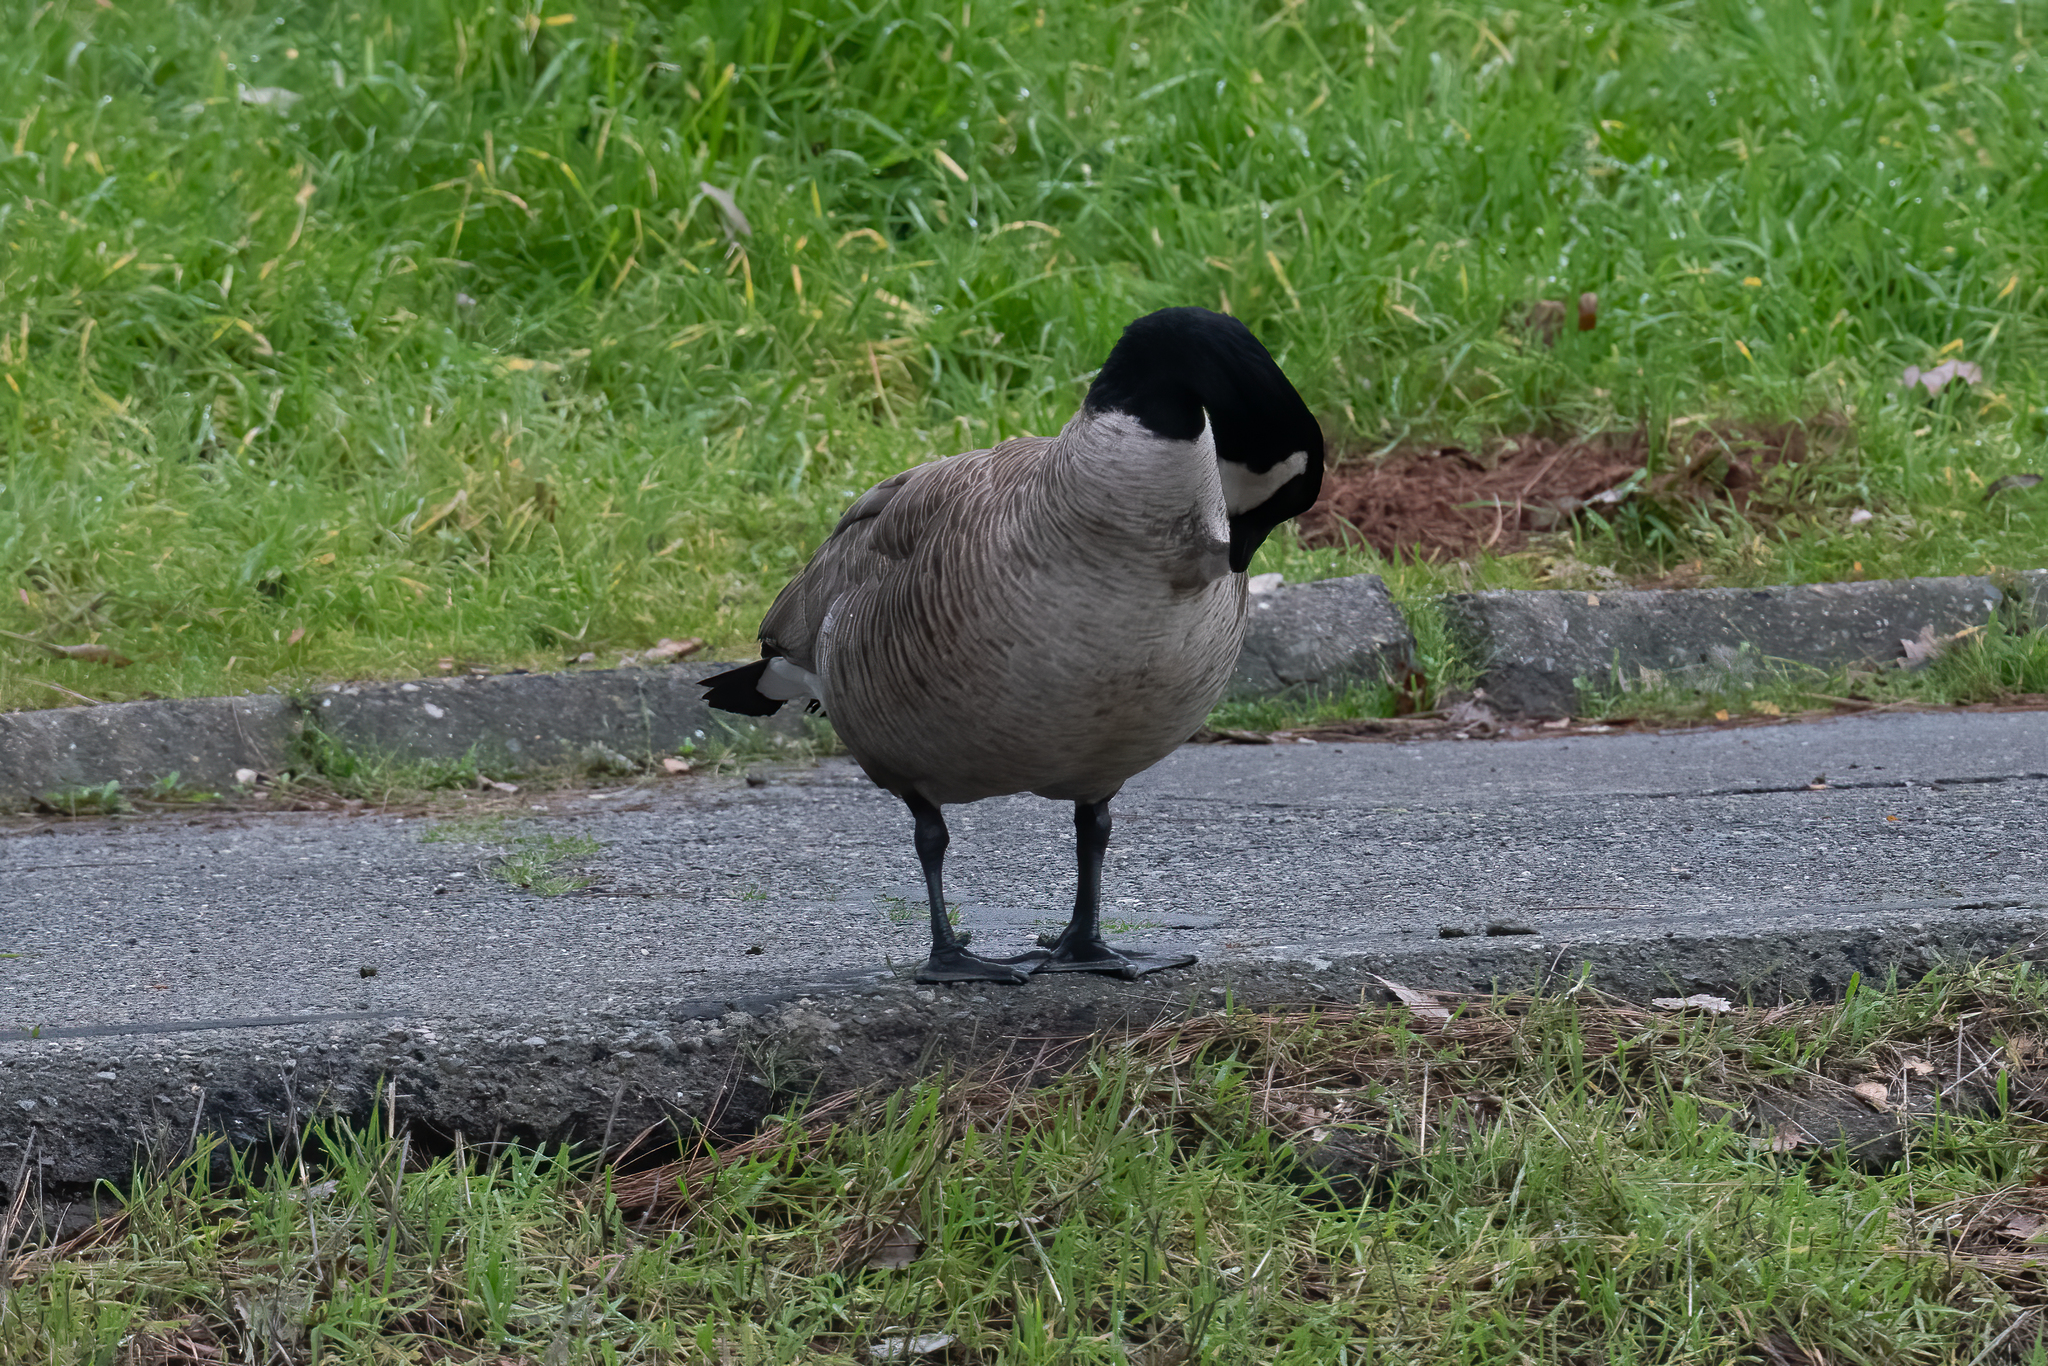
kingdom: Animalia
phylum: Chordata
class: Aves
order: Anseriformes
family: Anatidae
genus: Branta
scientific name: Branta canadensis
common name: Canada goose
